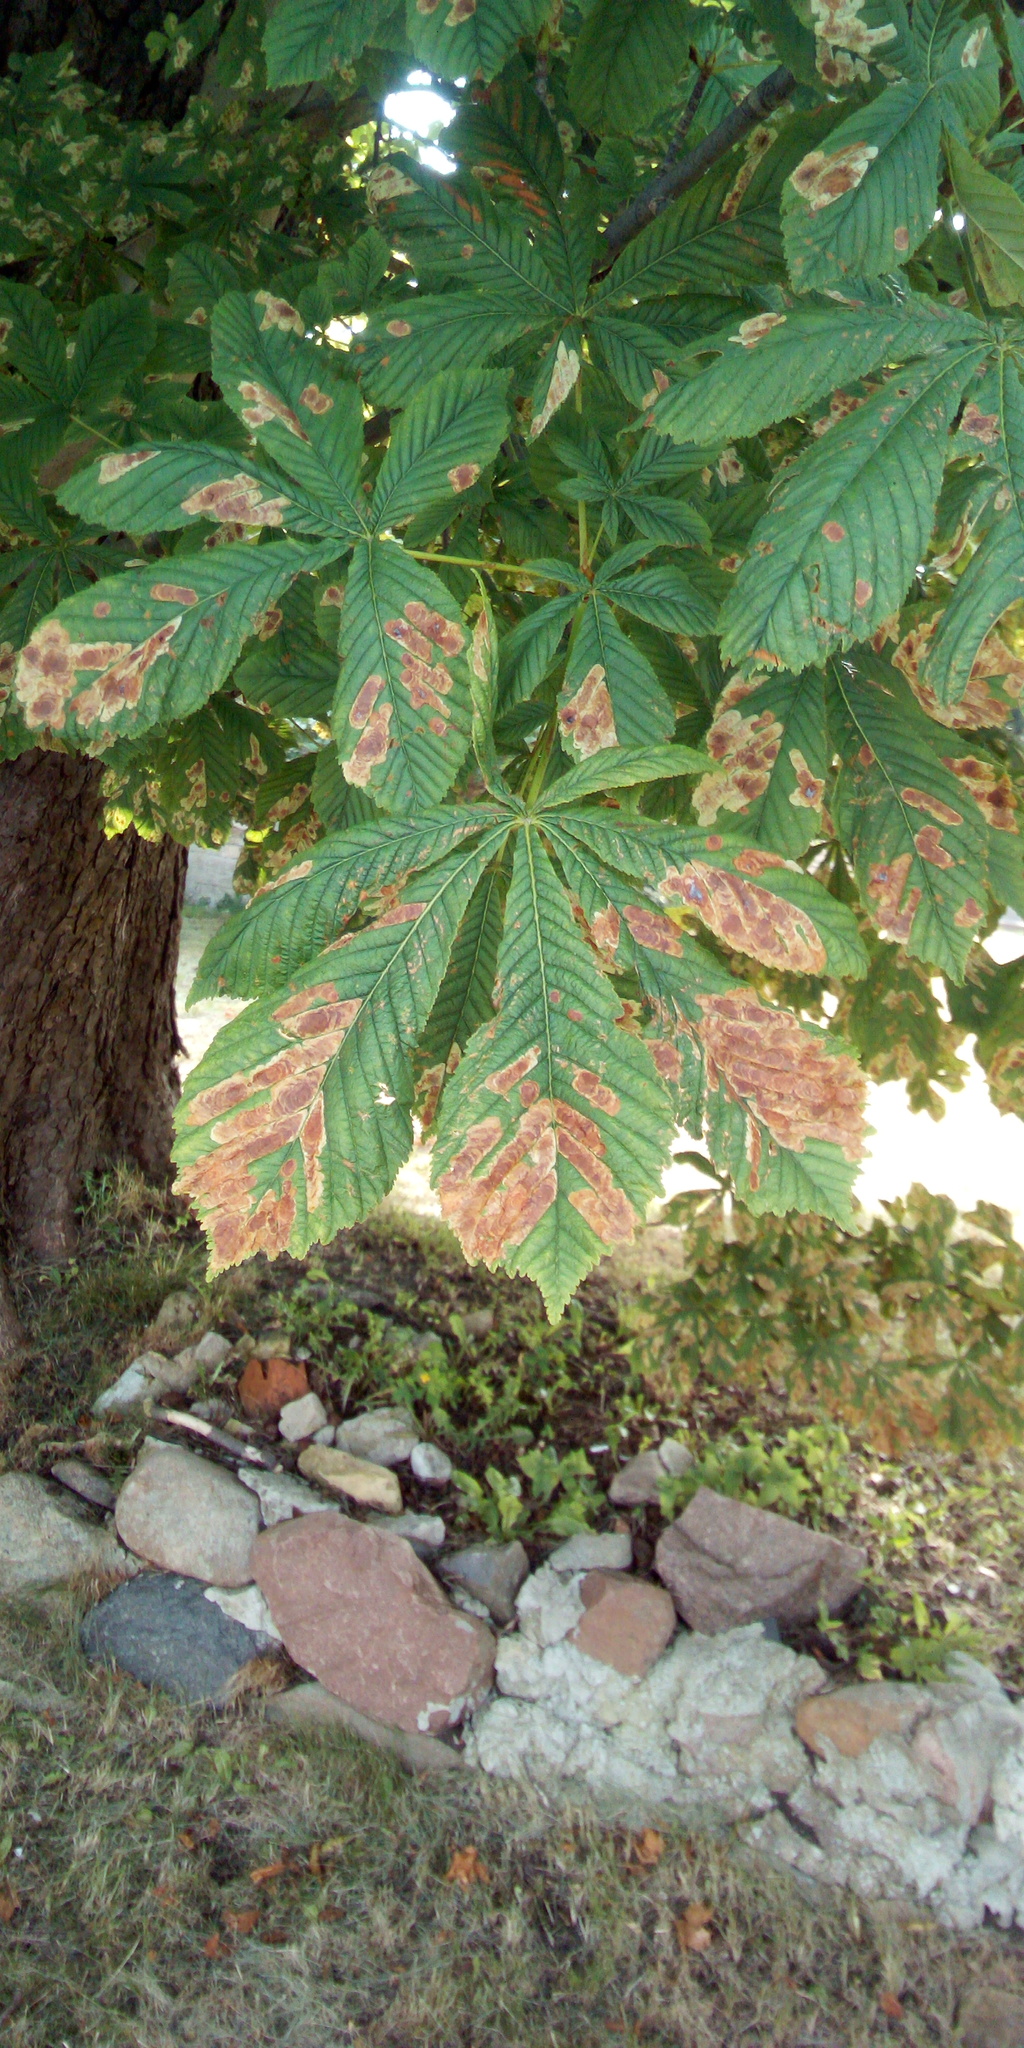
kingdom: Animalia
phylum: Arthropoda
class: Insecta
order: Lepidoptera
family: Gracillariidae
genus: Cameraria
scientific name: Cameraria ohridella
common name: Horse-chestnut leaf-miner
